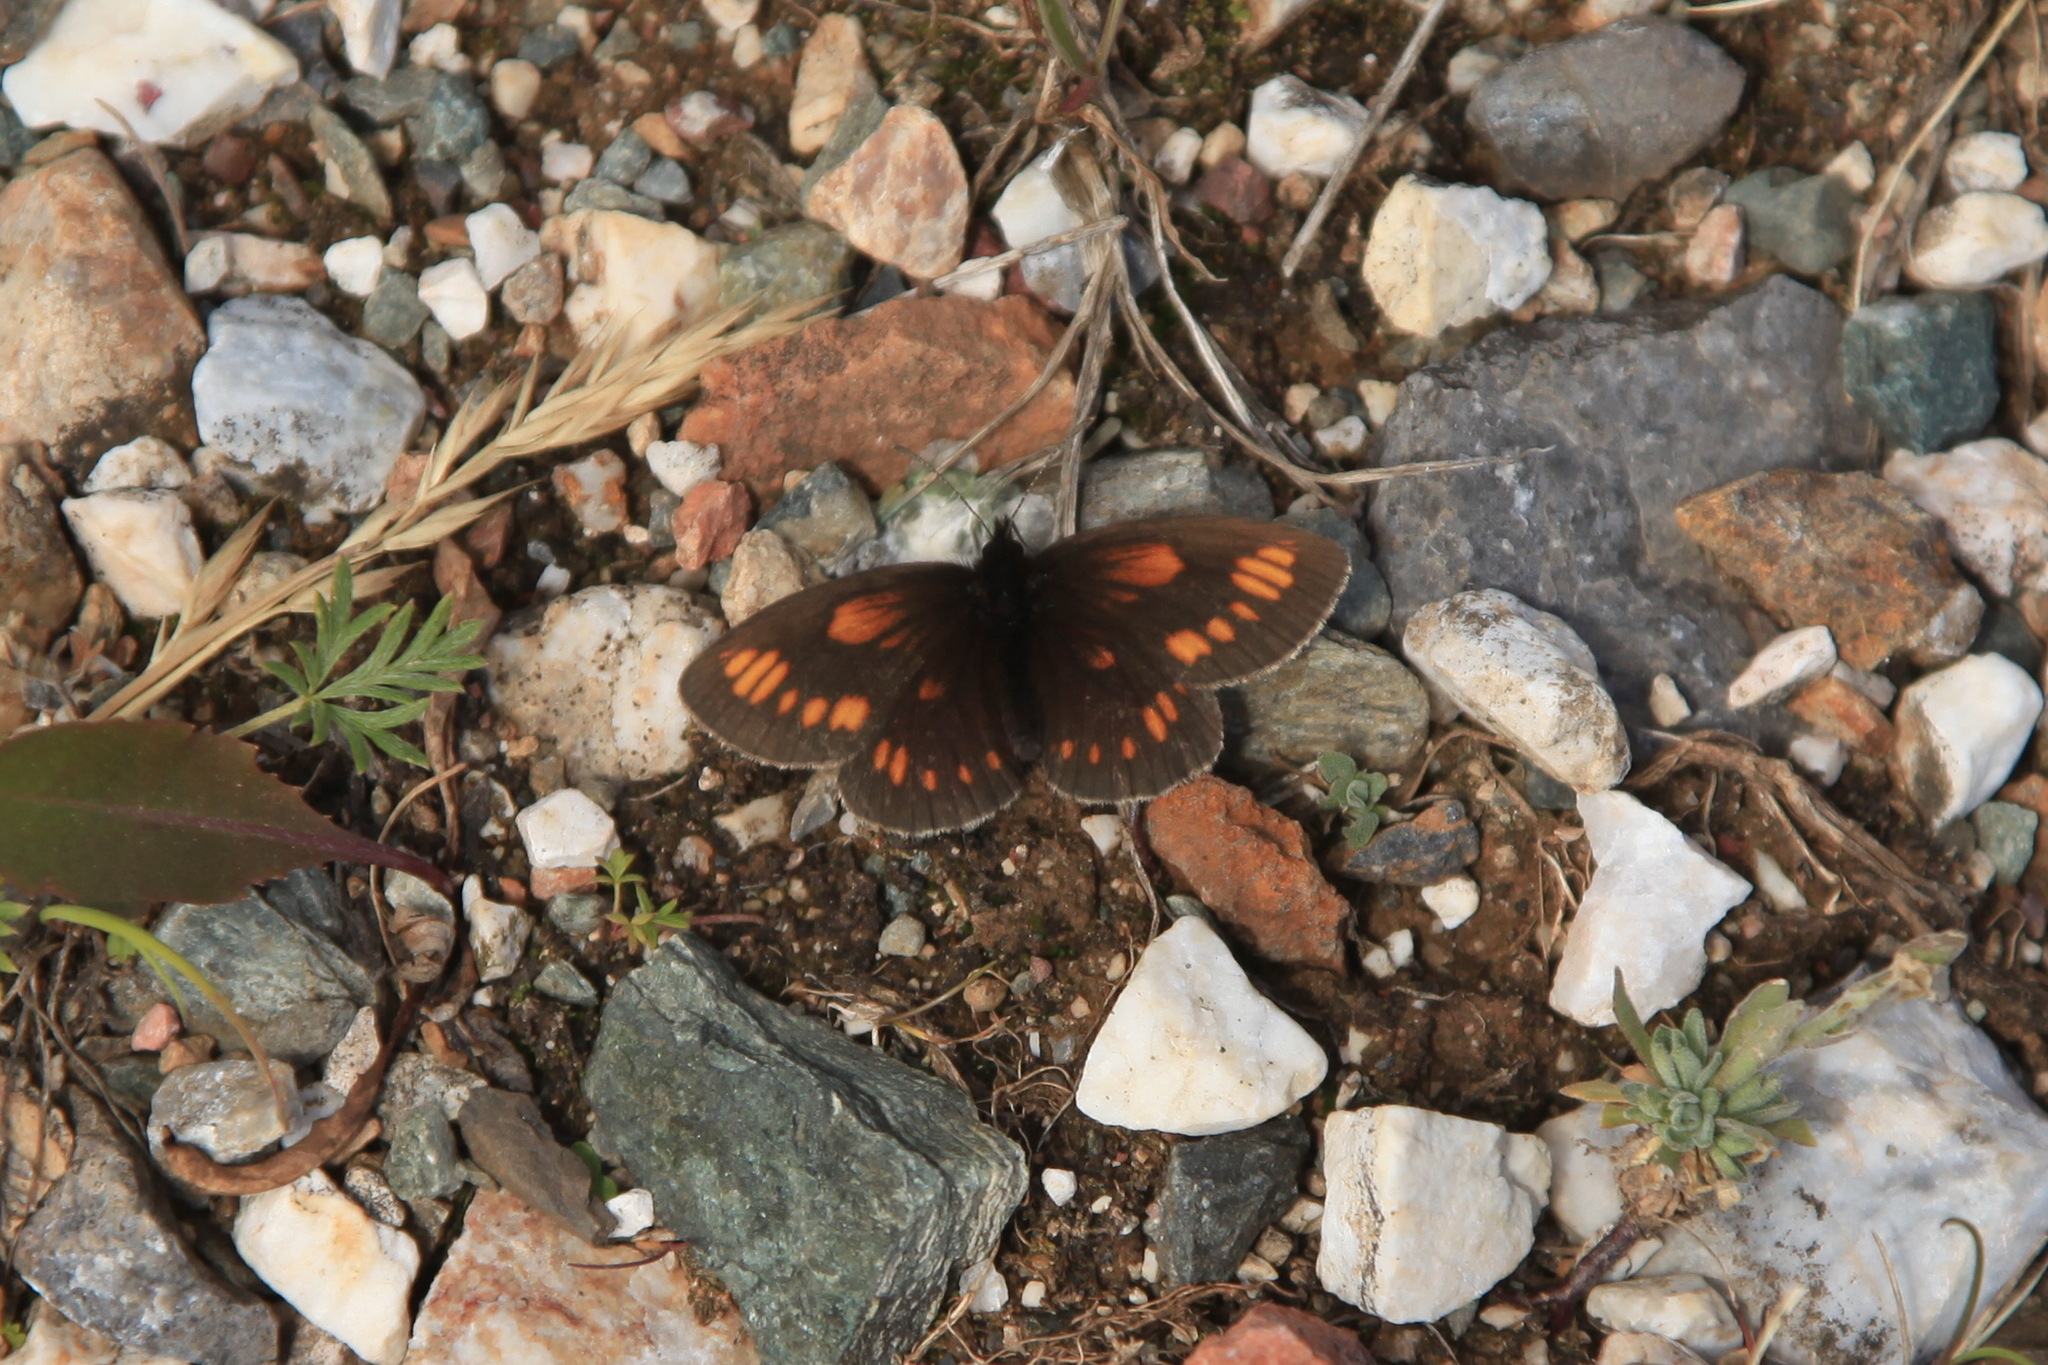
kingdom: Animalia
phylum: Arthropoda
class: Insecta
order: Lepidoptera
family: Nymphalidae
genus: Erebia
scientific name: Erebia maurisius
